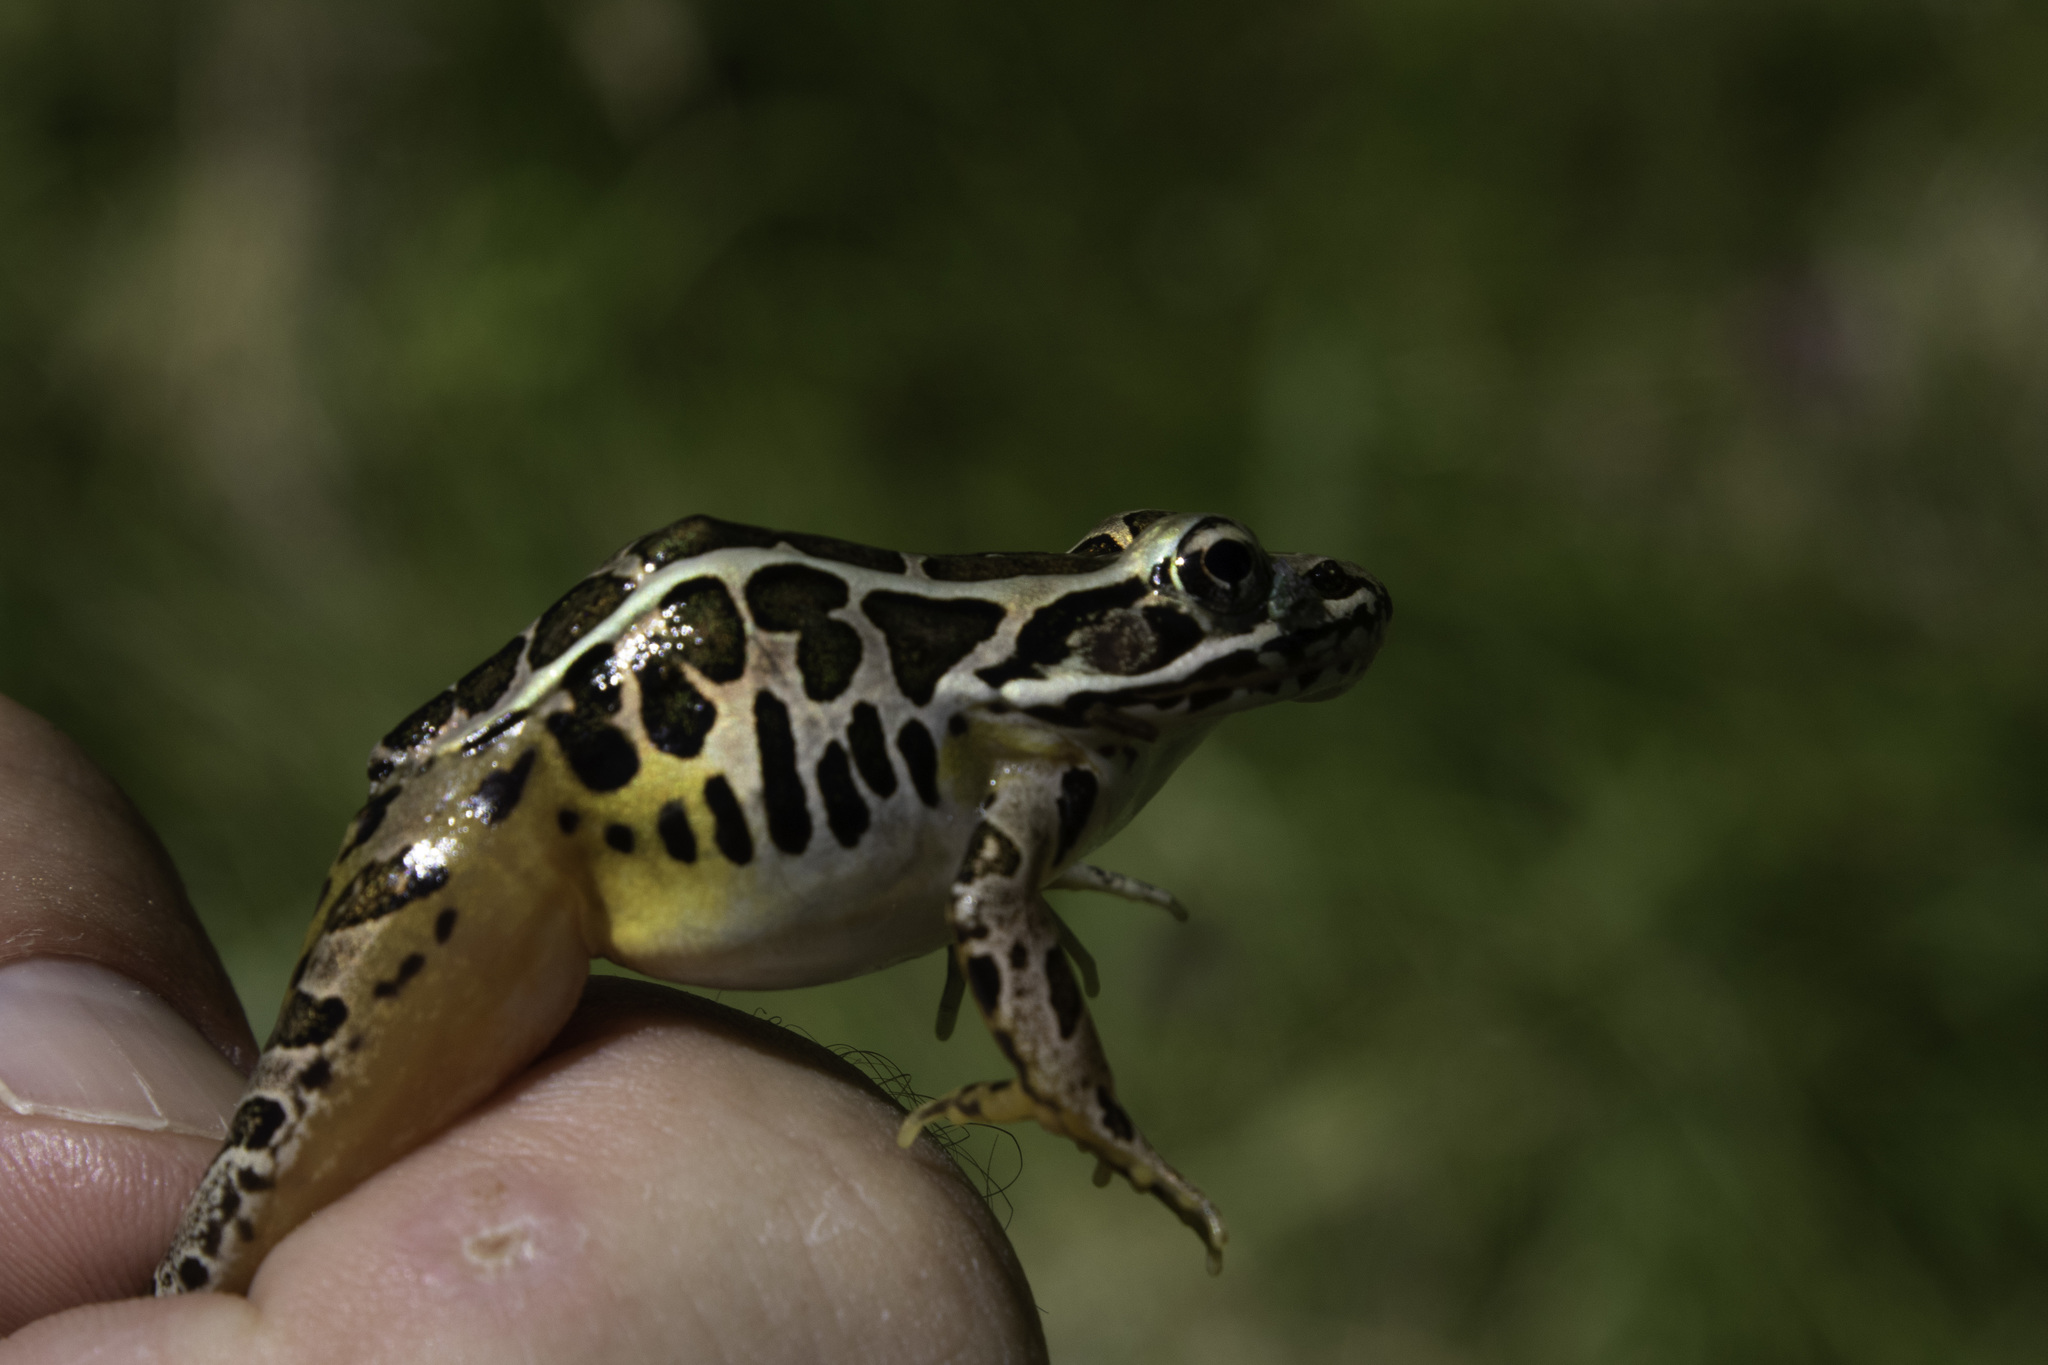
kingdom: Animalia
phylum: Chordata
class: Amphibia
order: Anura
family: Ranidae
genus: Lithobates
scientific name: Lithobates palustris
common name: Pickerel frog
